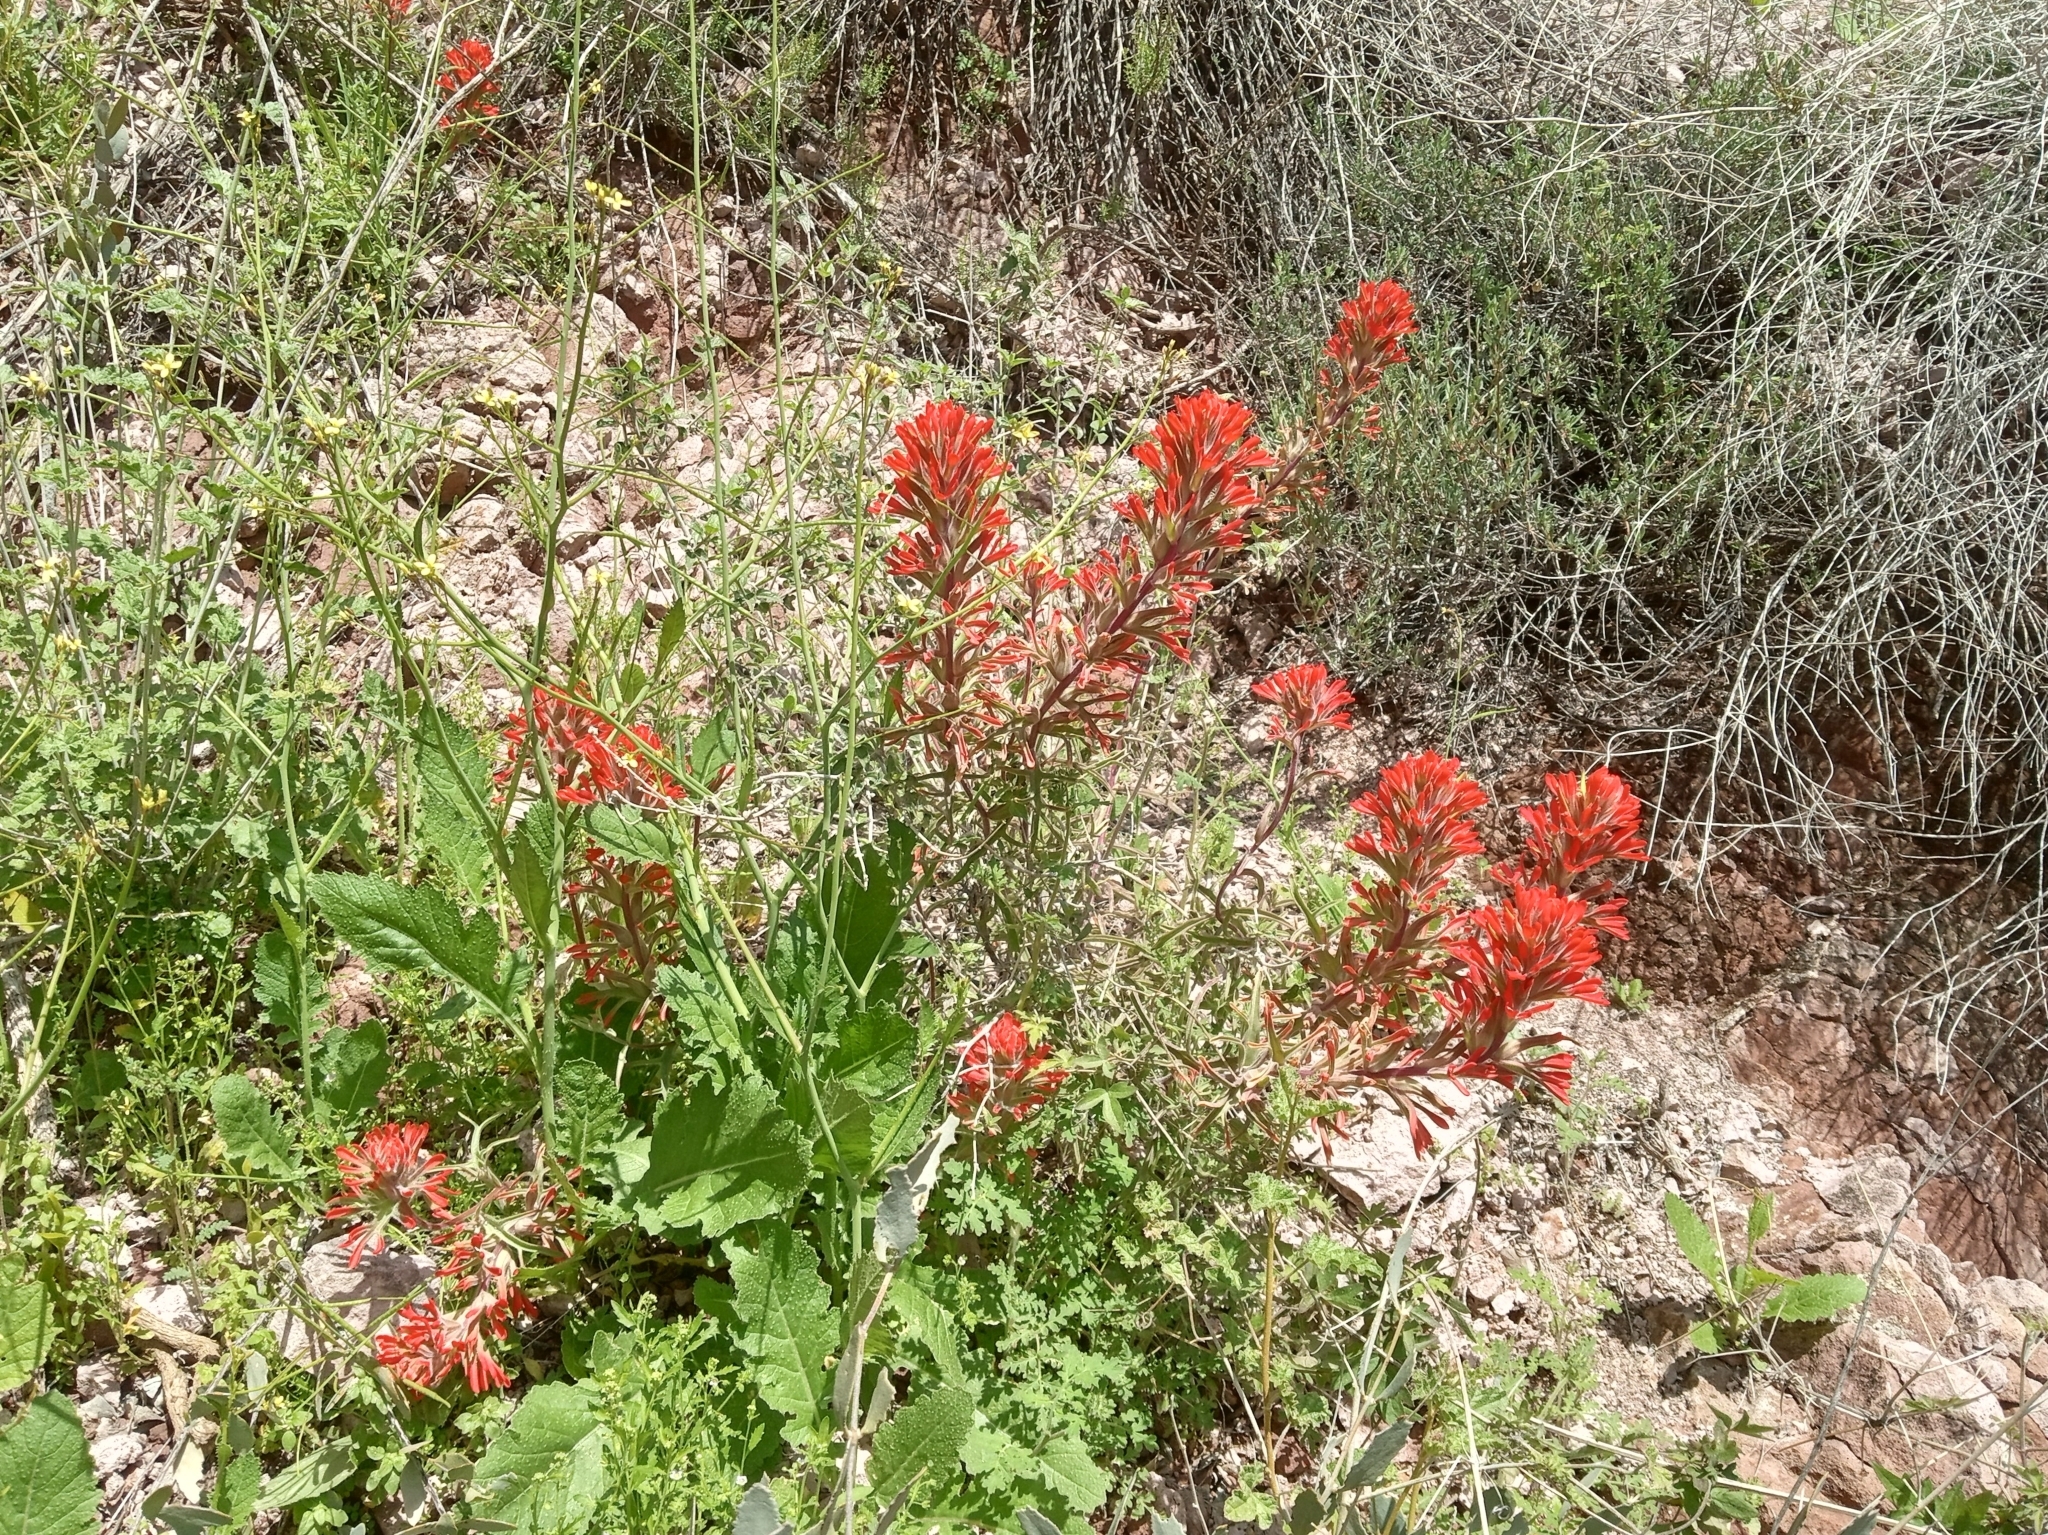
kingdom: Plantae
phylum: Tracheophyta
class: Magnoliopsida
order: Lamiales
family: Orobanchaceae
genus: Castilleja
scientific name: Castilleja chromosa
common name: Desert paintbrush
